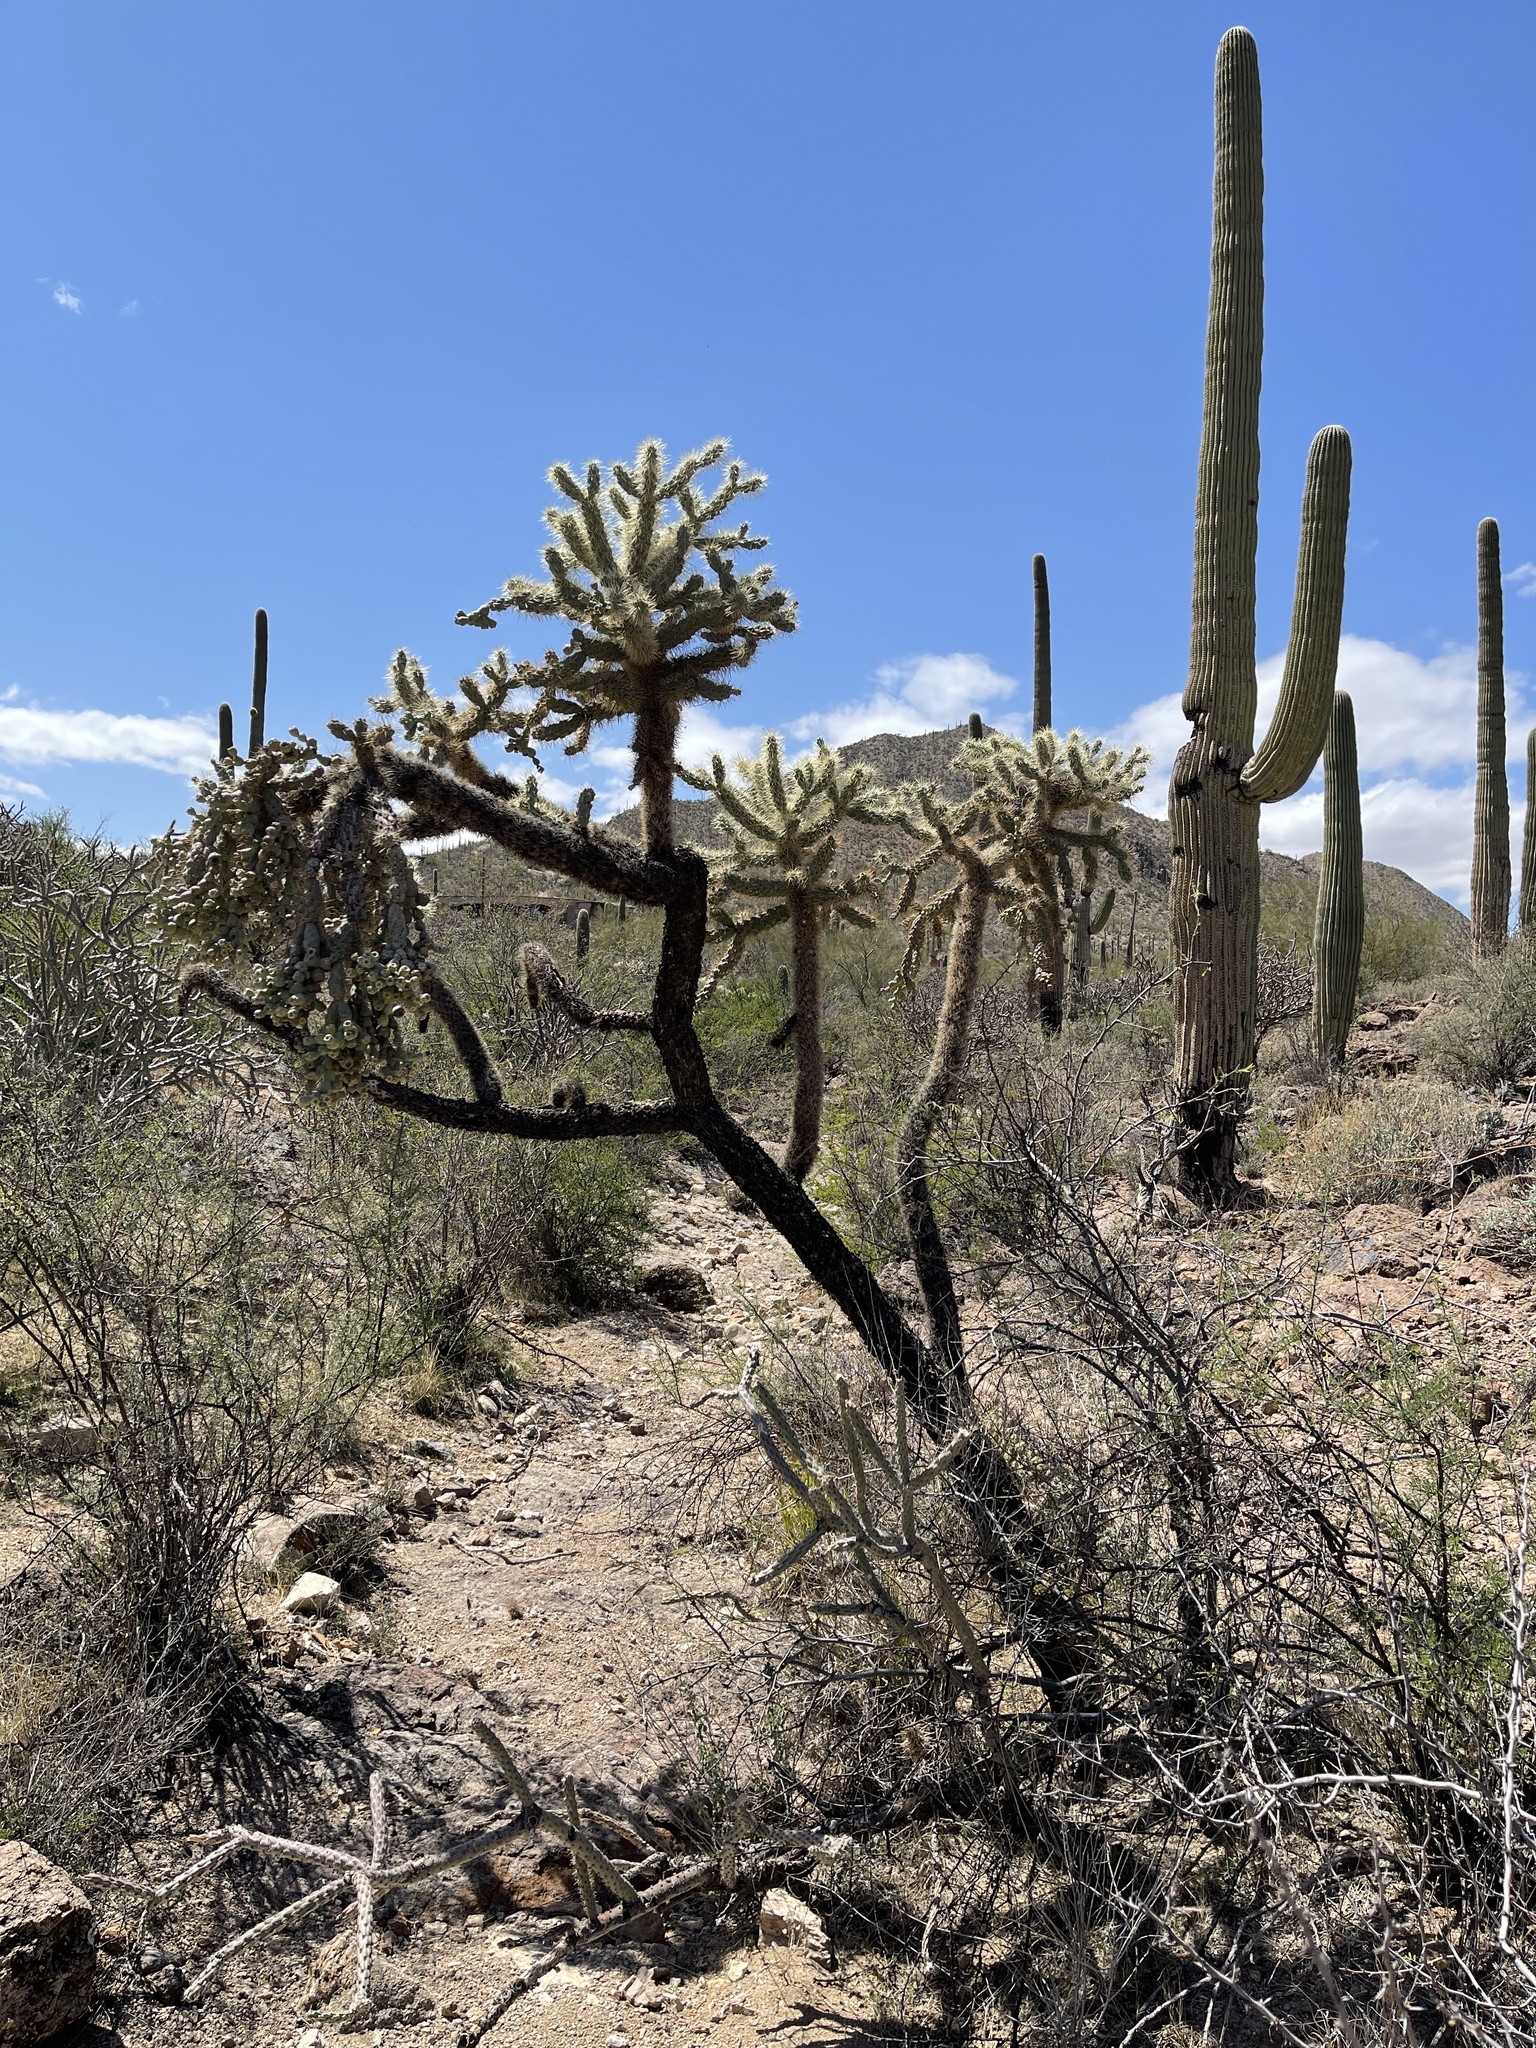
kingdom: Plantae
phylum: Tracheophyta
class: Magnoliopsida
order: Caryophyllales
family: Cactaceae
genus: Cylindropuntia
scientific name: Cylindropuntia fulgida
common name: Jumping cholla
